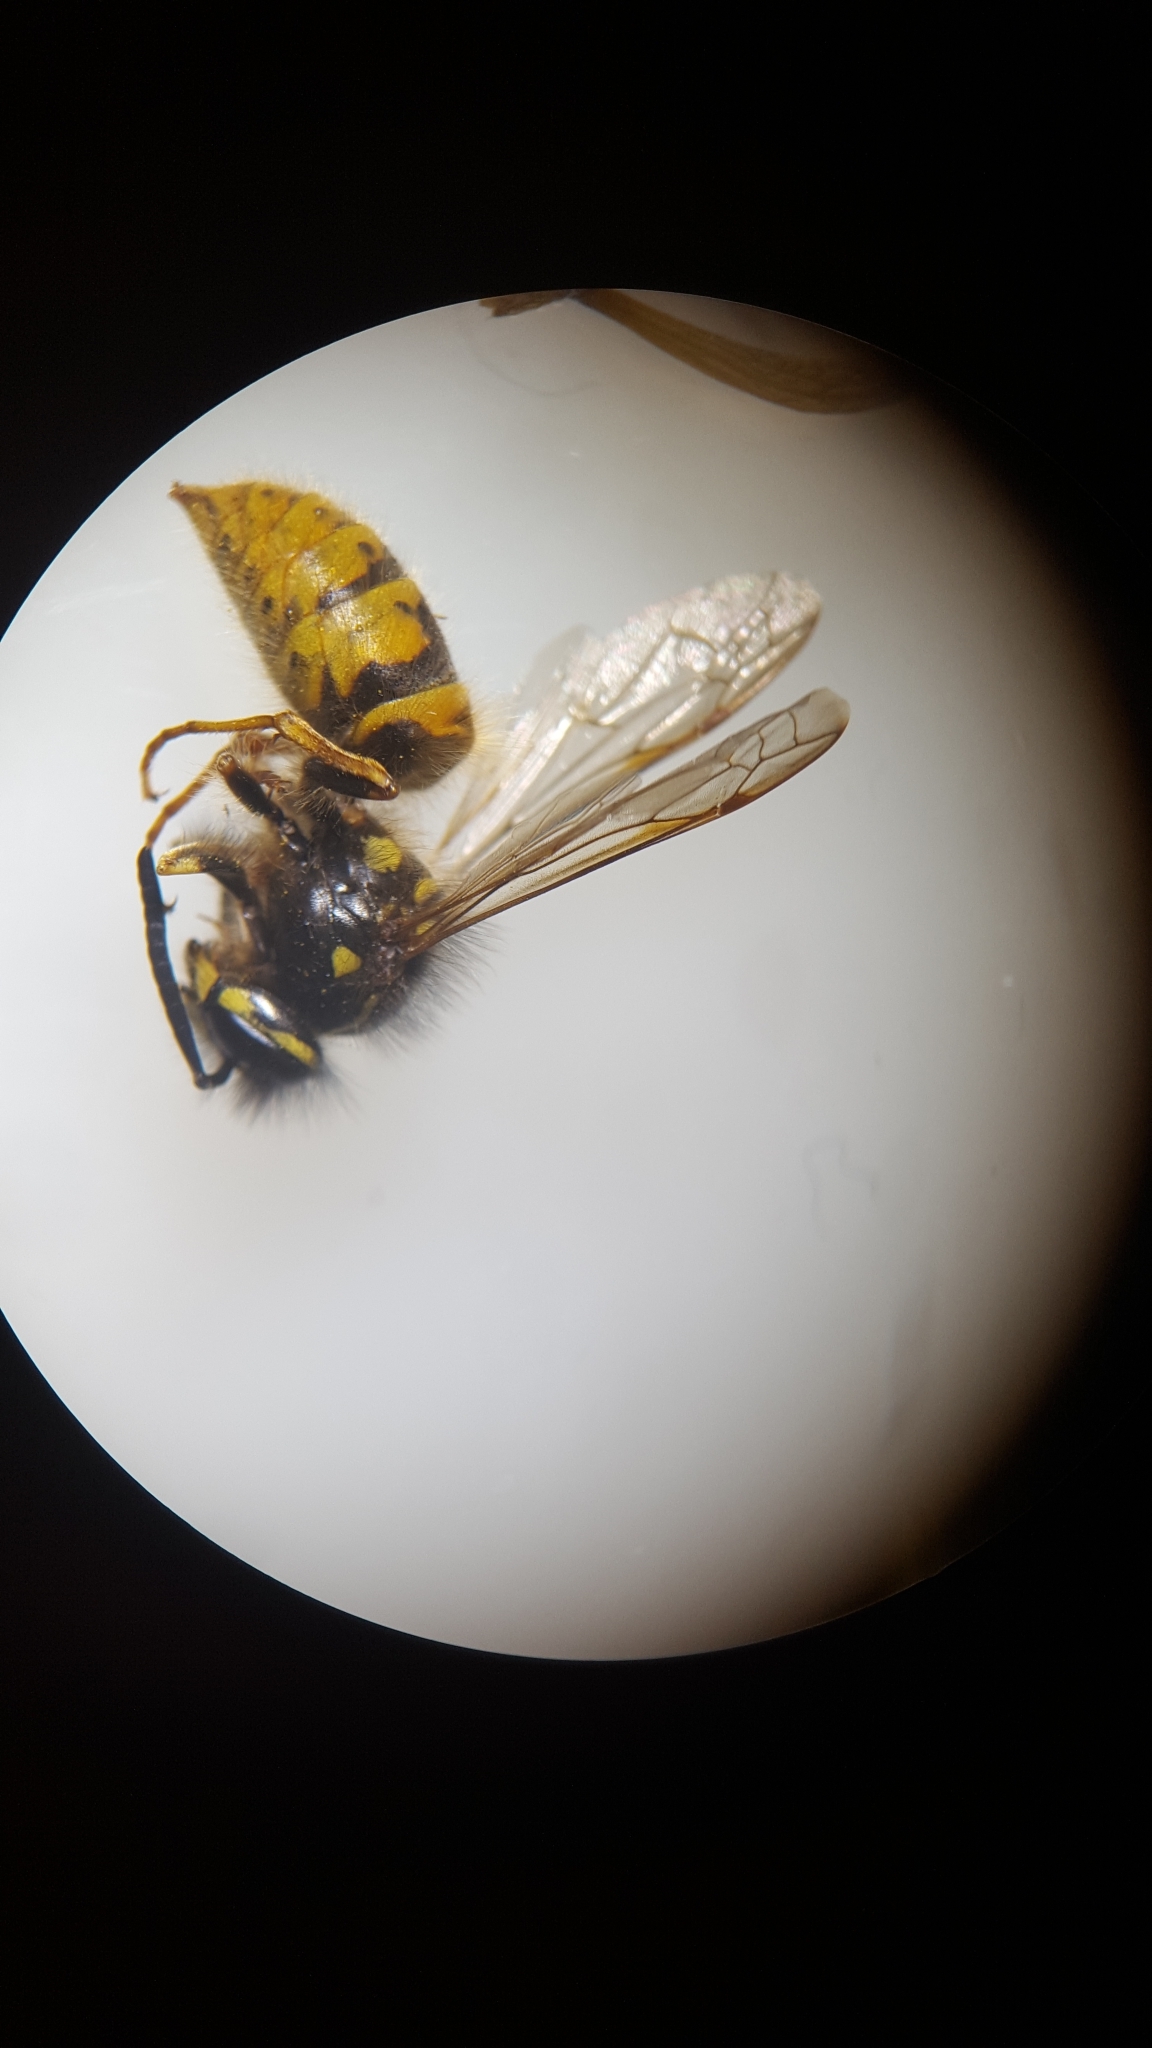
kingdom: Animalia
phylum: Arthropoda
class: Insecta
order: Hymenoptera
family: Vespidae
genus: Vespula
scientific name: Vespula vulgaris
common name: Common wasp
